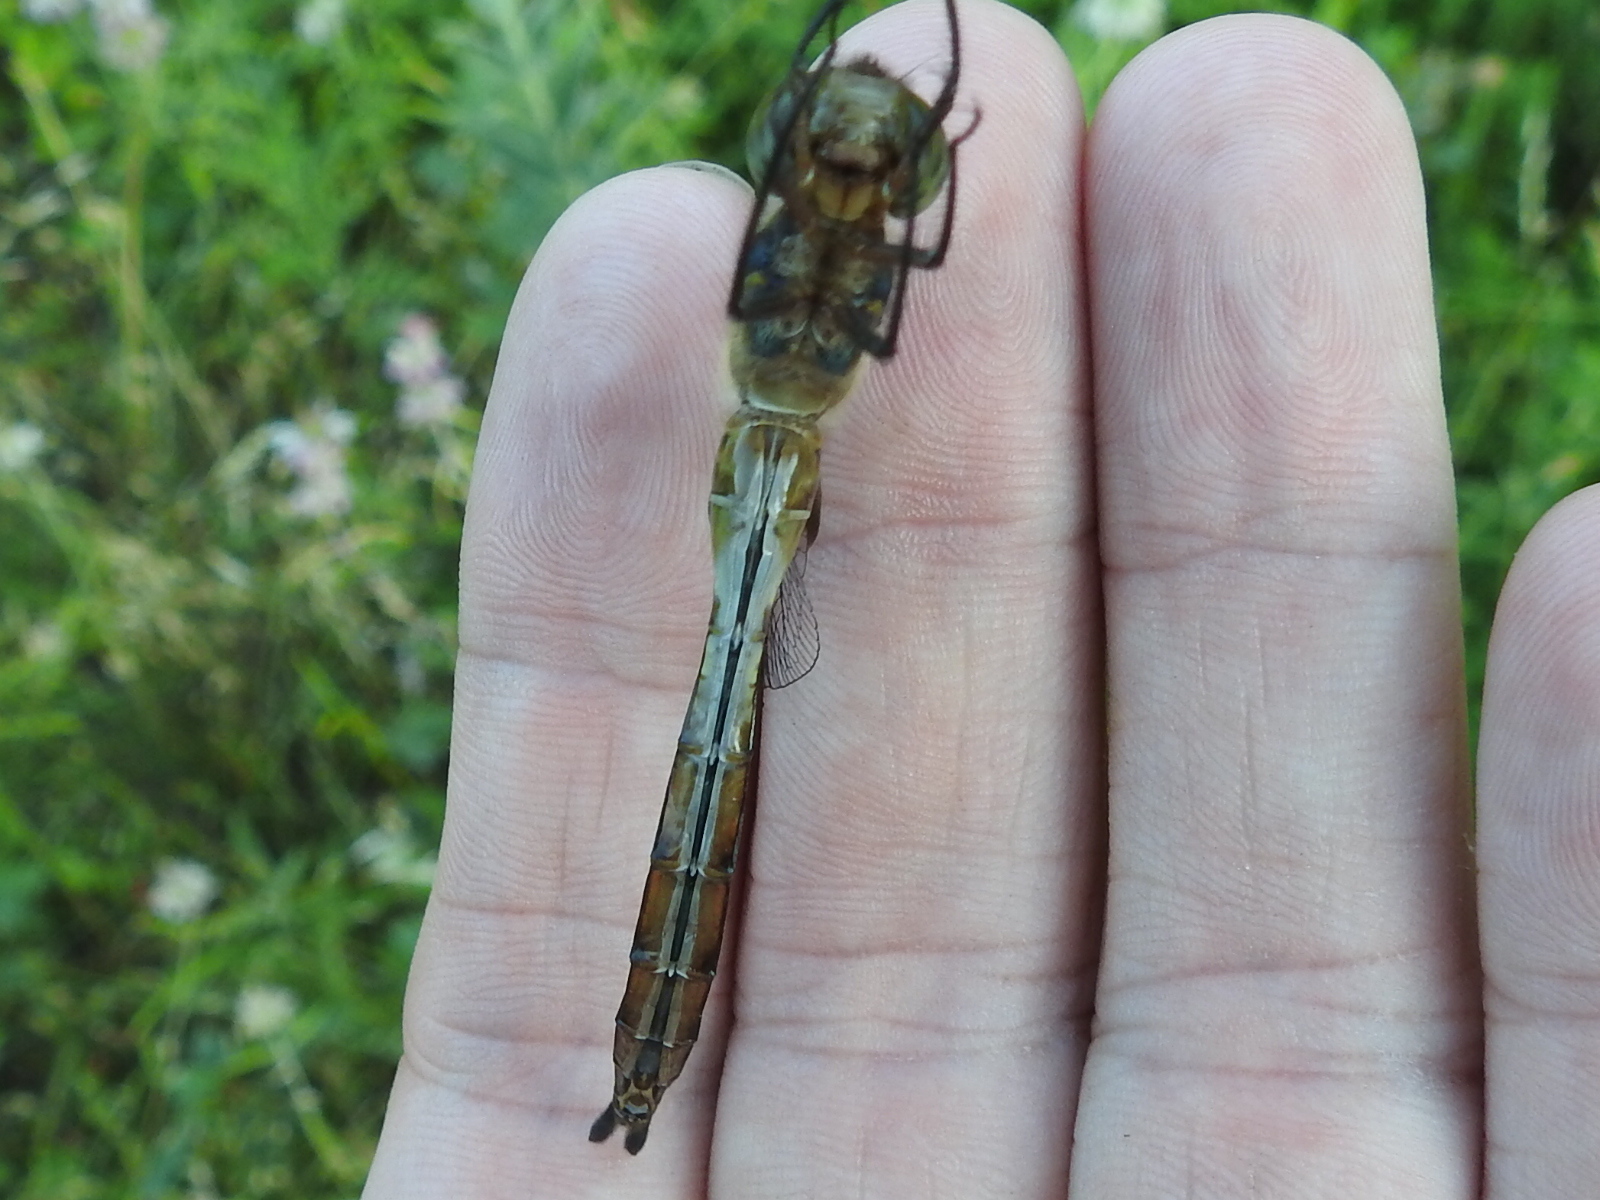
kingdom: Animalia
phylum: Arthropoda
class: Insecta
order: Odonata
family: Corduliidae
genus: Epitheca
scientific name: Epitheca princeps
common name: Prince baskettail
